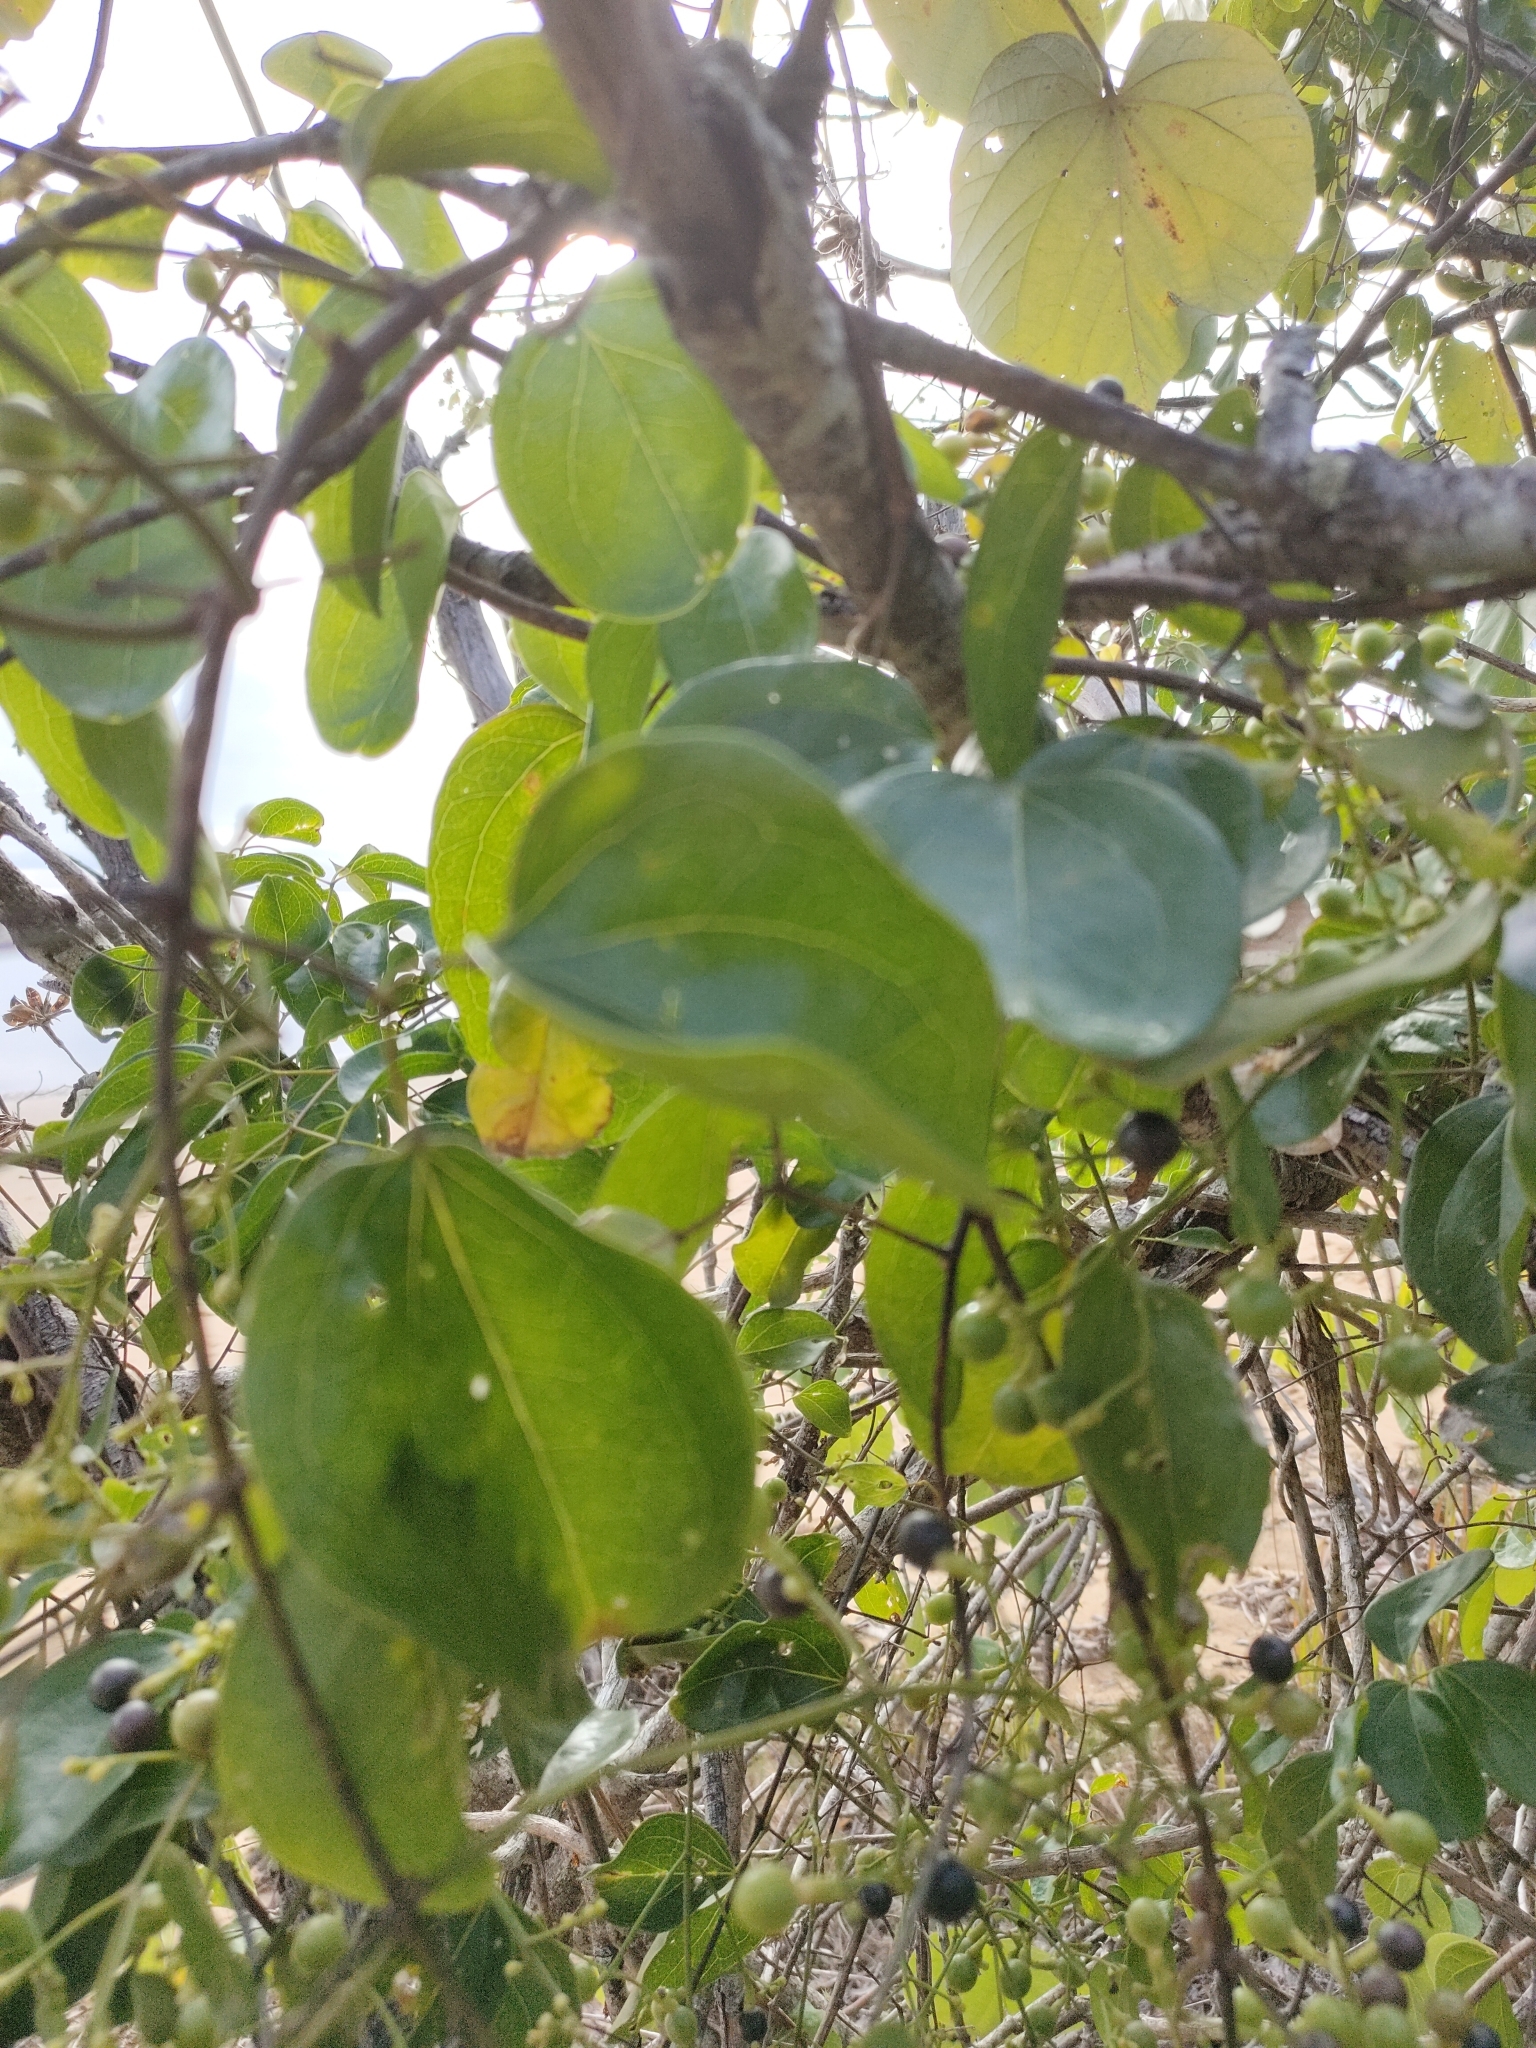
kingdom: Plantae
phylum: Tracheophyta
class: Magnoliopsida
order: Lamiales
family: Oleaceae
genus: Jasminum
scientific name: Jasminum didymum
